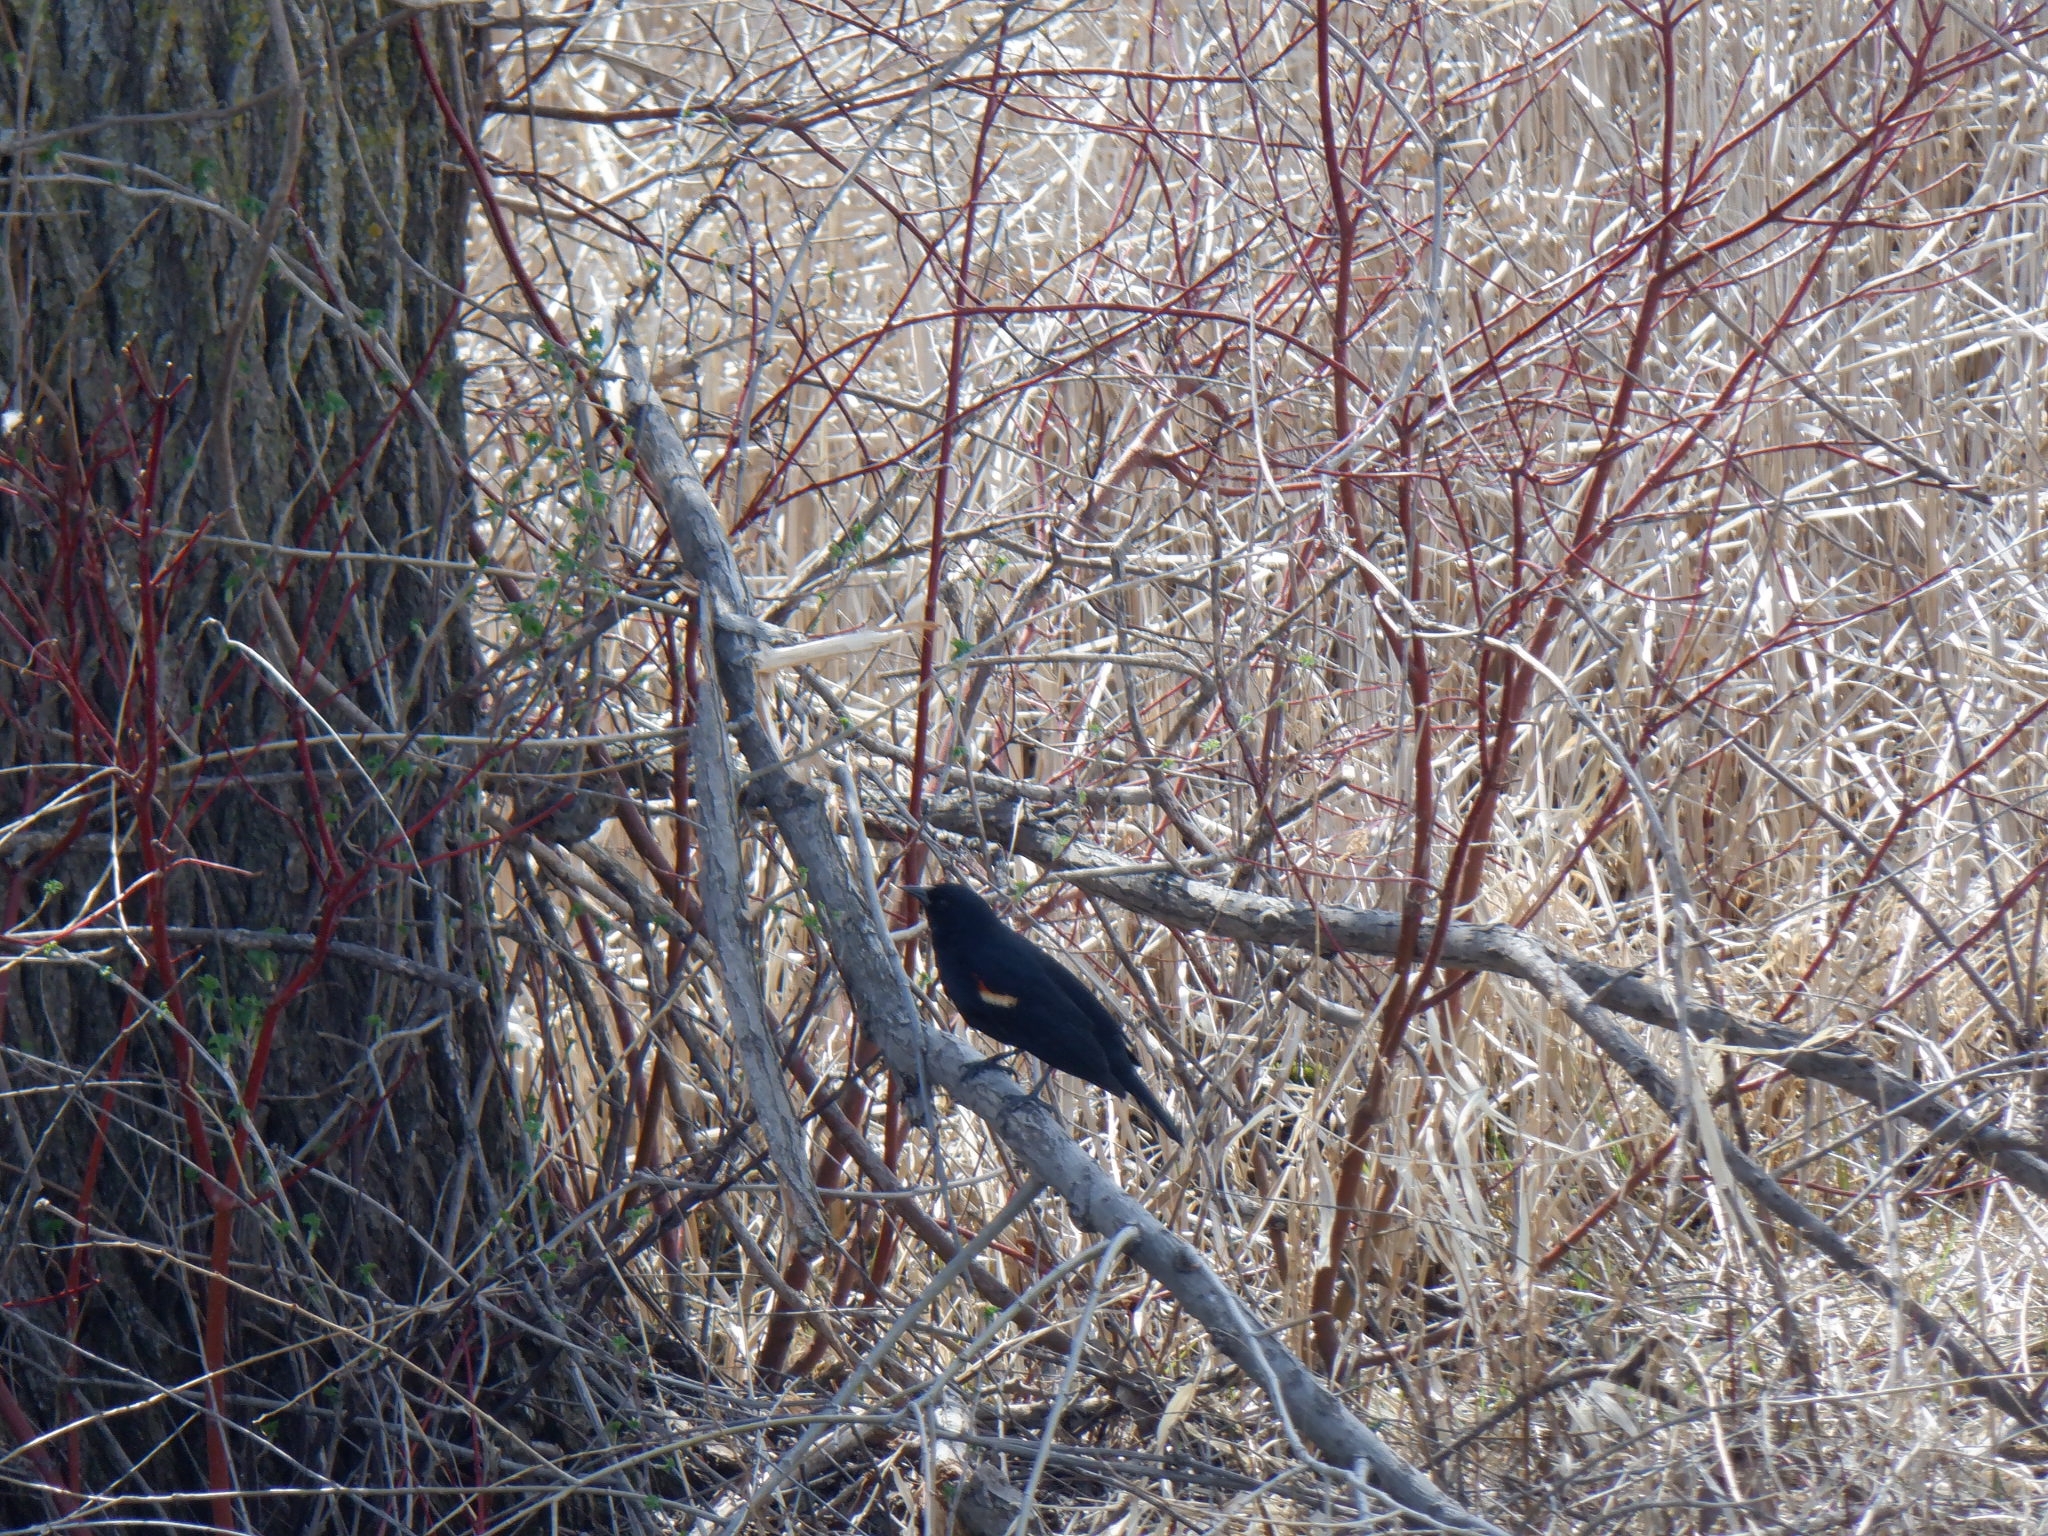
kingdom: Animalia
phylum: Chordata
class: Aves
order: Passeriformes
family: Icteridae
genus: Agelaius
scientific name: Agelaius phoeniceus
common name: Red-winged blackbird
